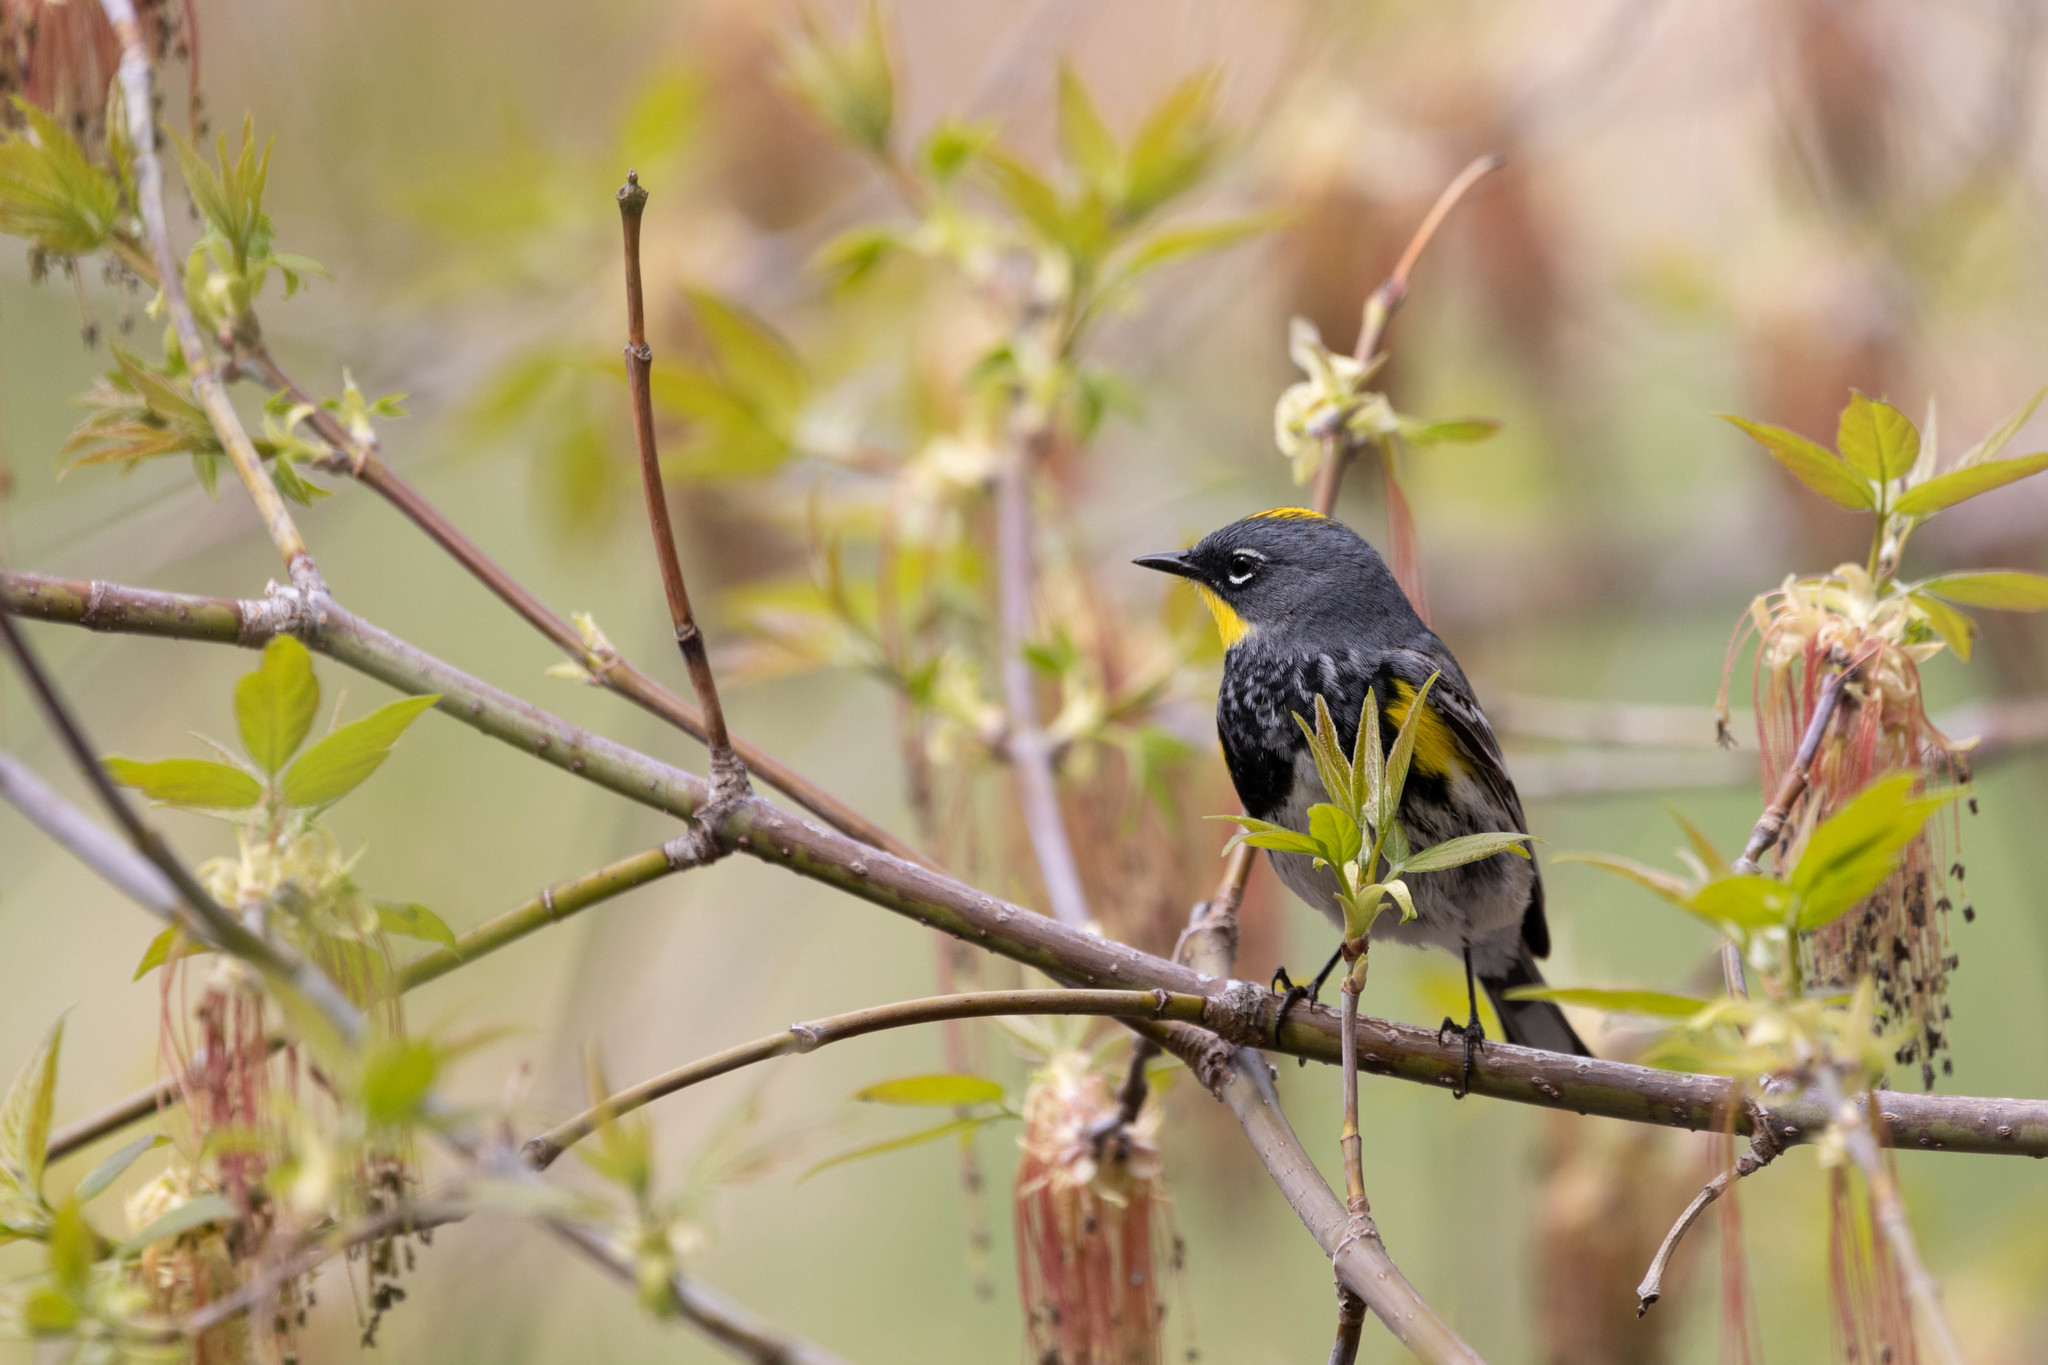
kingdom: Animalia
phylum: Chordata
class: Aves
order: Passeriformes
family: Parulidae
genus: Setophaga
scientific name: Setophaga auduboni
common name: Audubon's warbler
